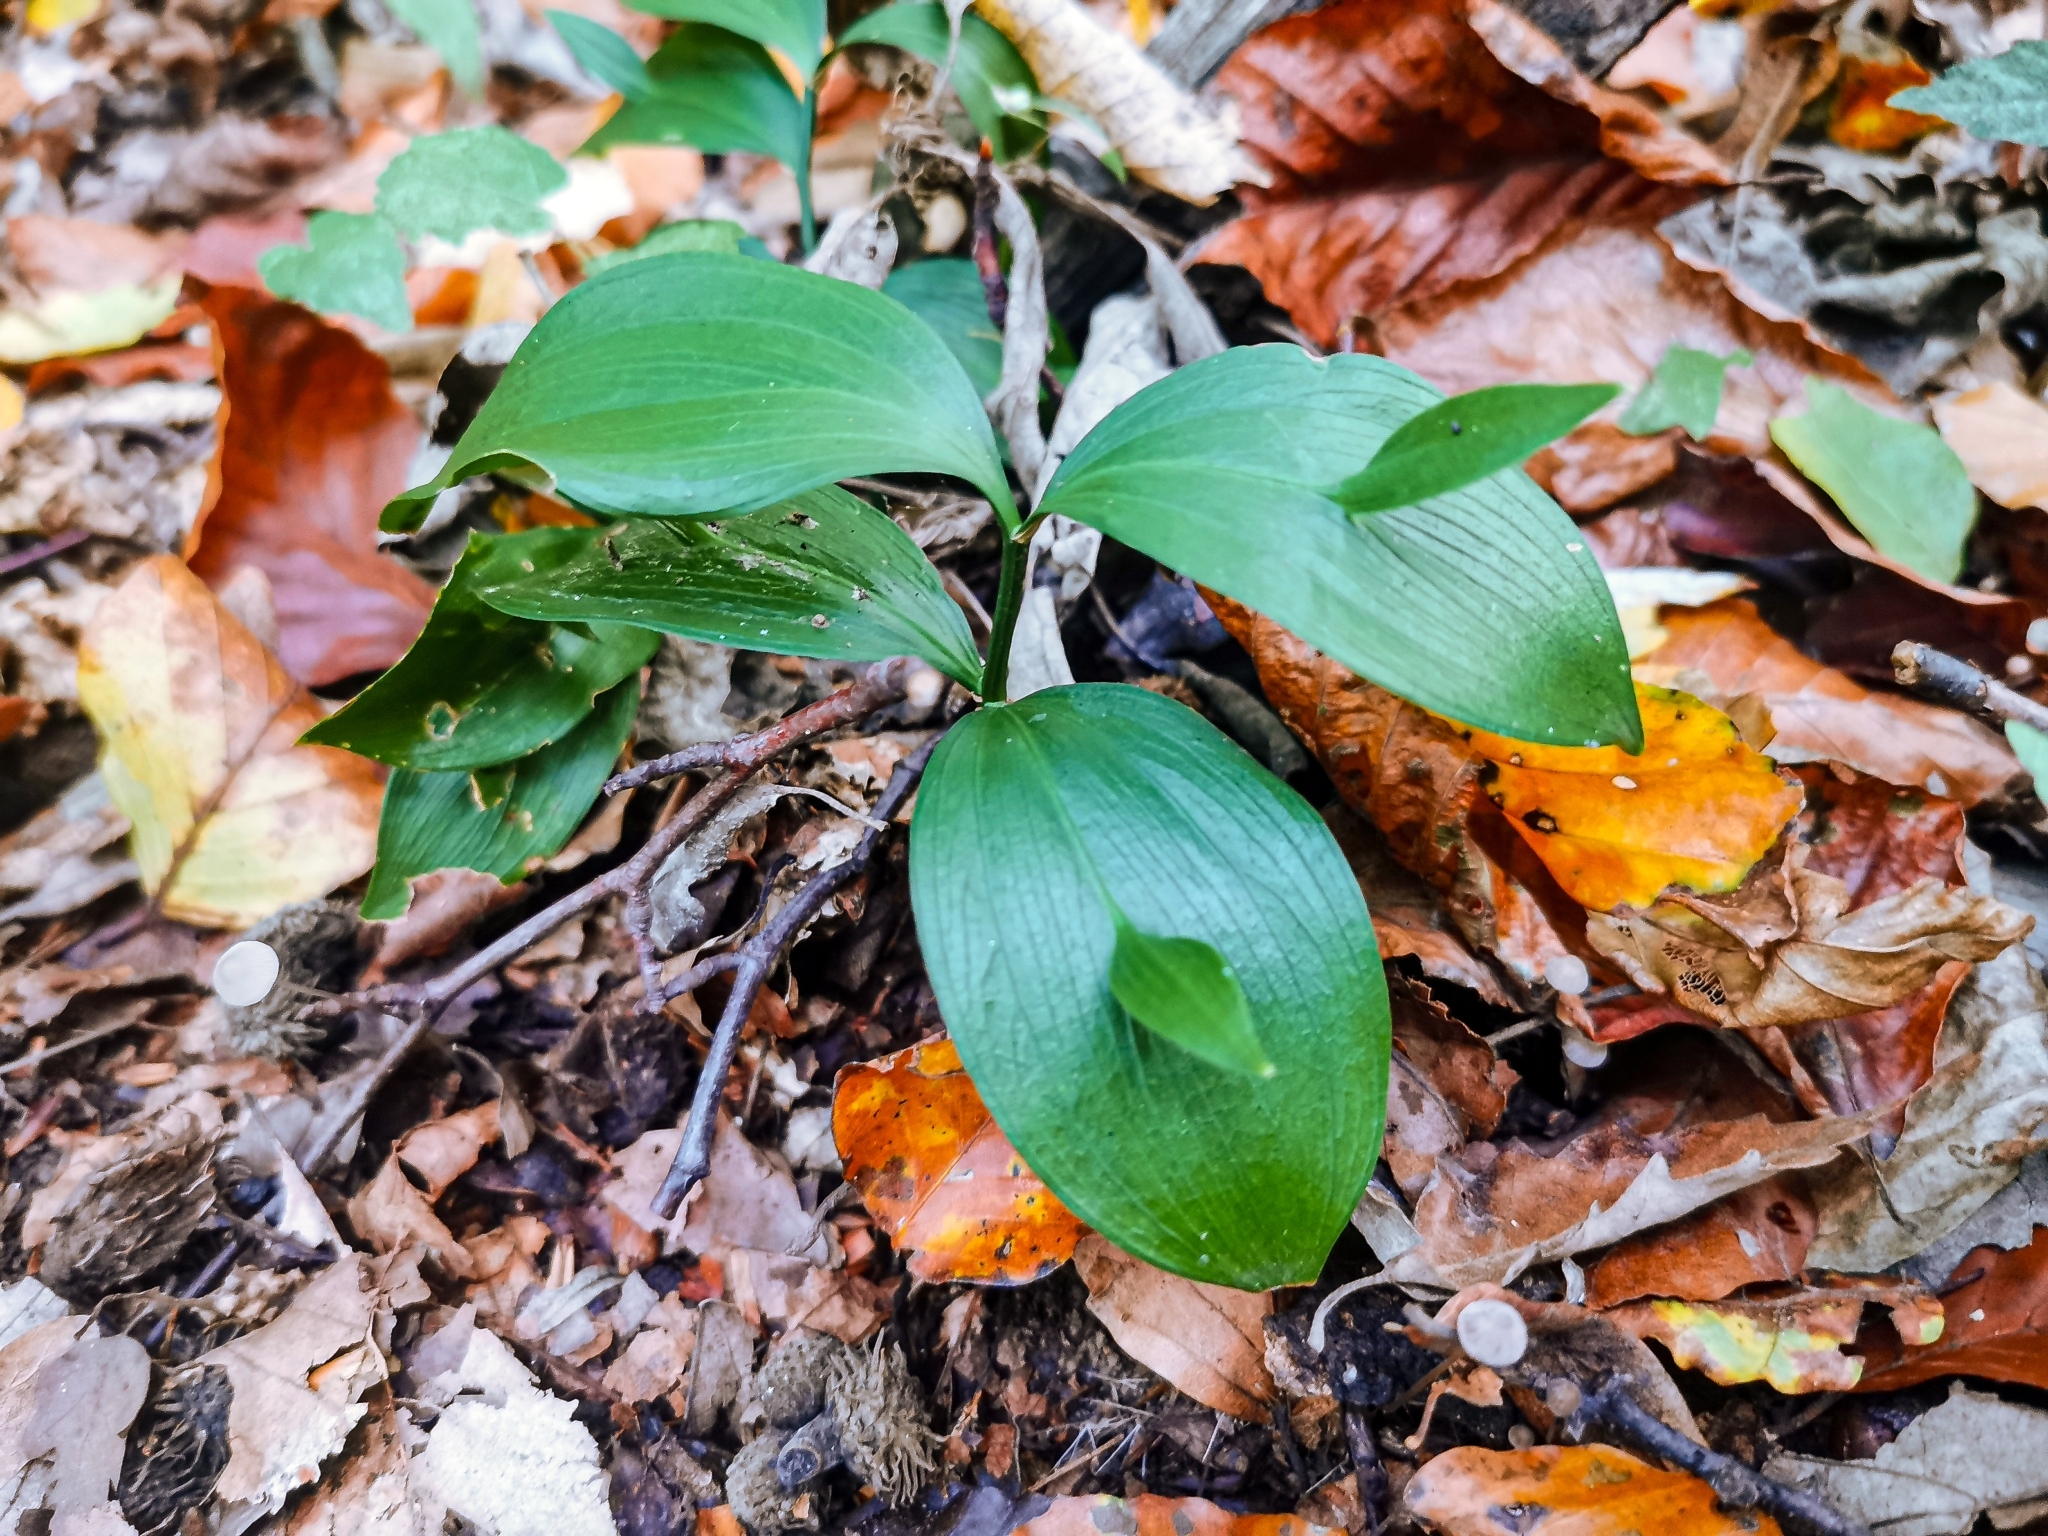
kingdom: Plantae
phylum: Tracheophyta
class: Liliopsida
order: Asparagales
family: Asparagaceae
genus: Ruscus
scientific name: Ruscus hypoglossum
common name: Spineless butcher's-broom
